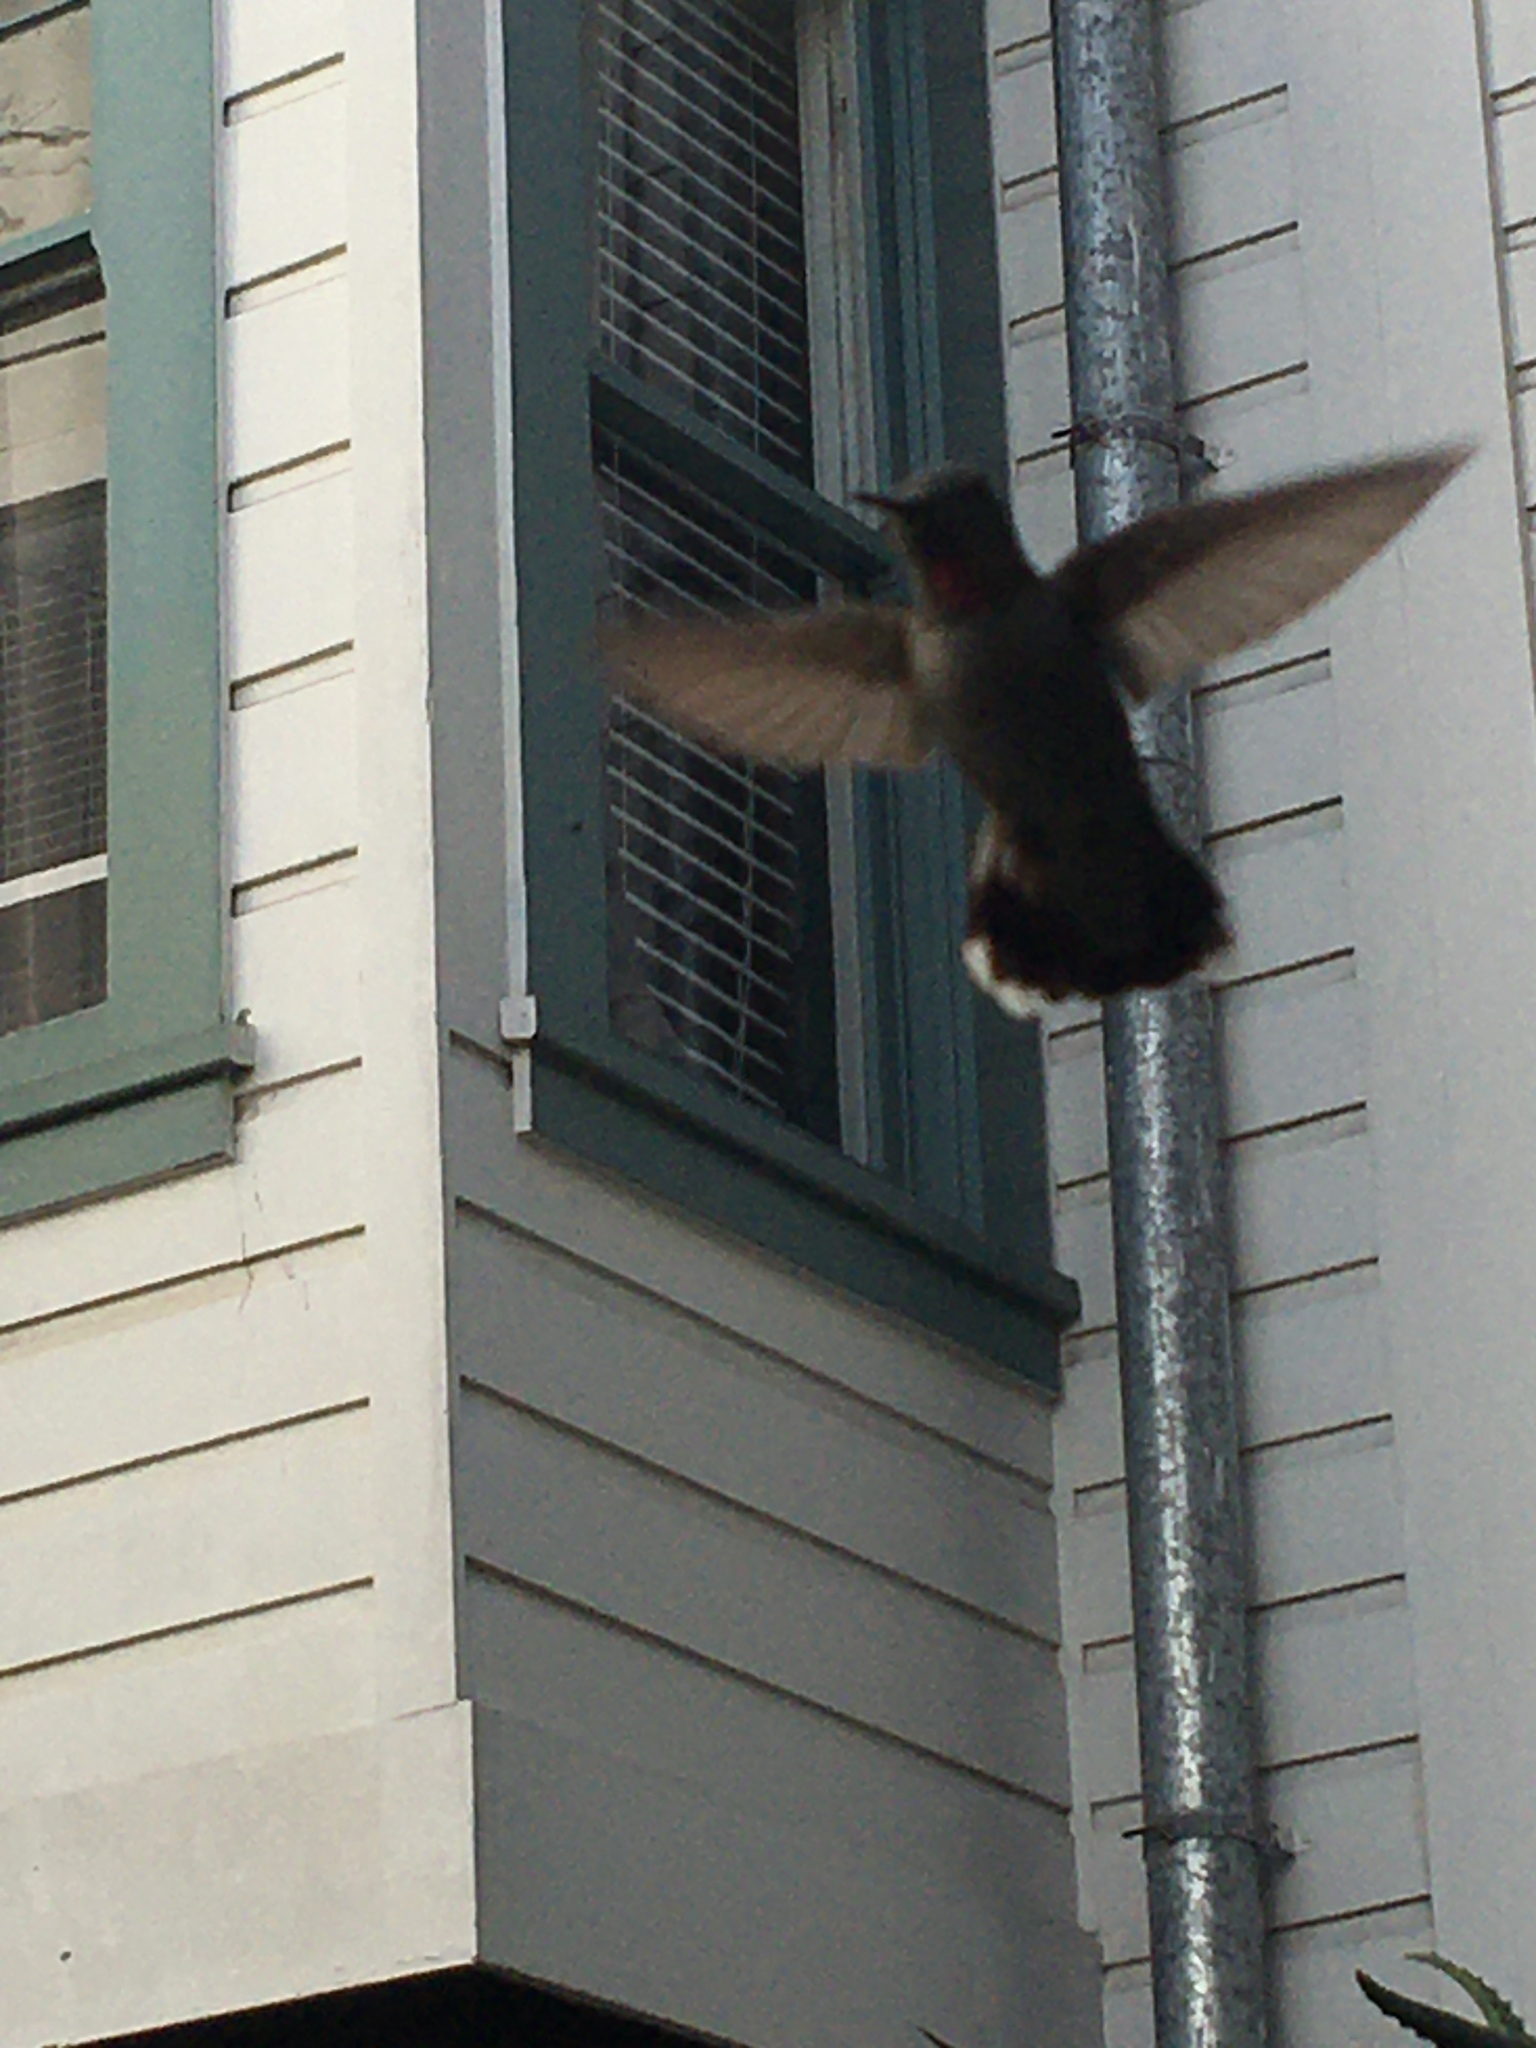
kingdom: Animalia
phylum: Chordata
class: Aves
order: Apodiformes
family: Trochilidae
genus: Calypte
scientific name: Calypte anna
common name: Anna's hummingbird
